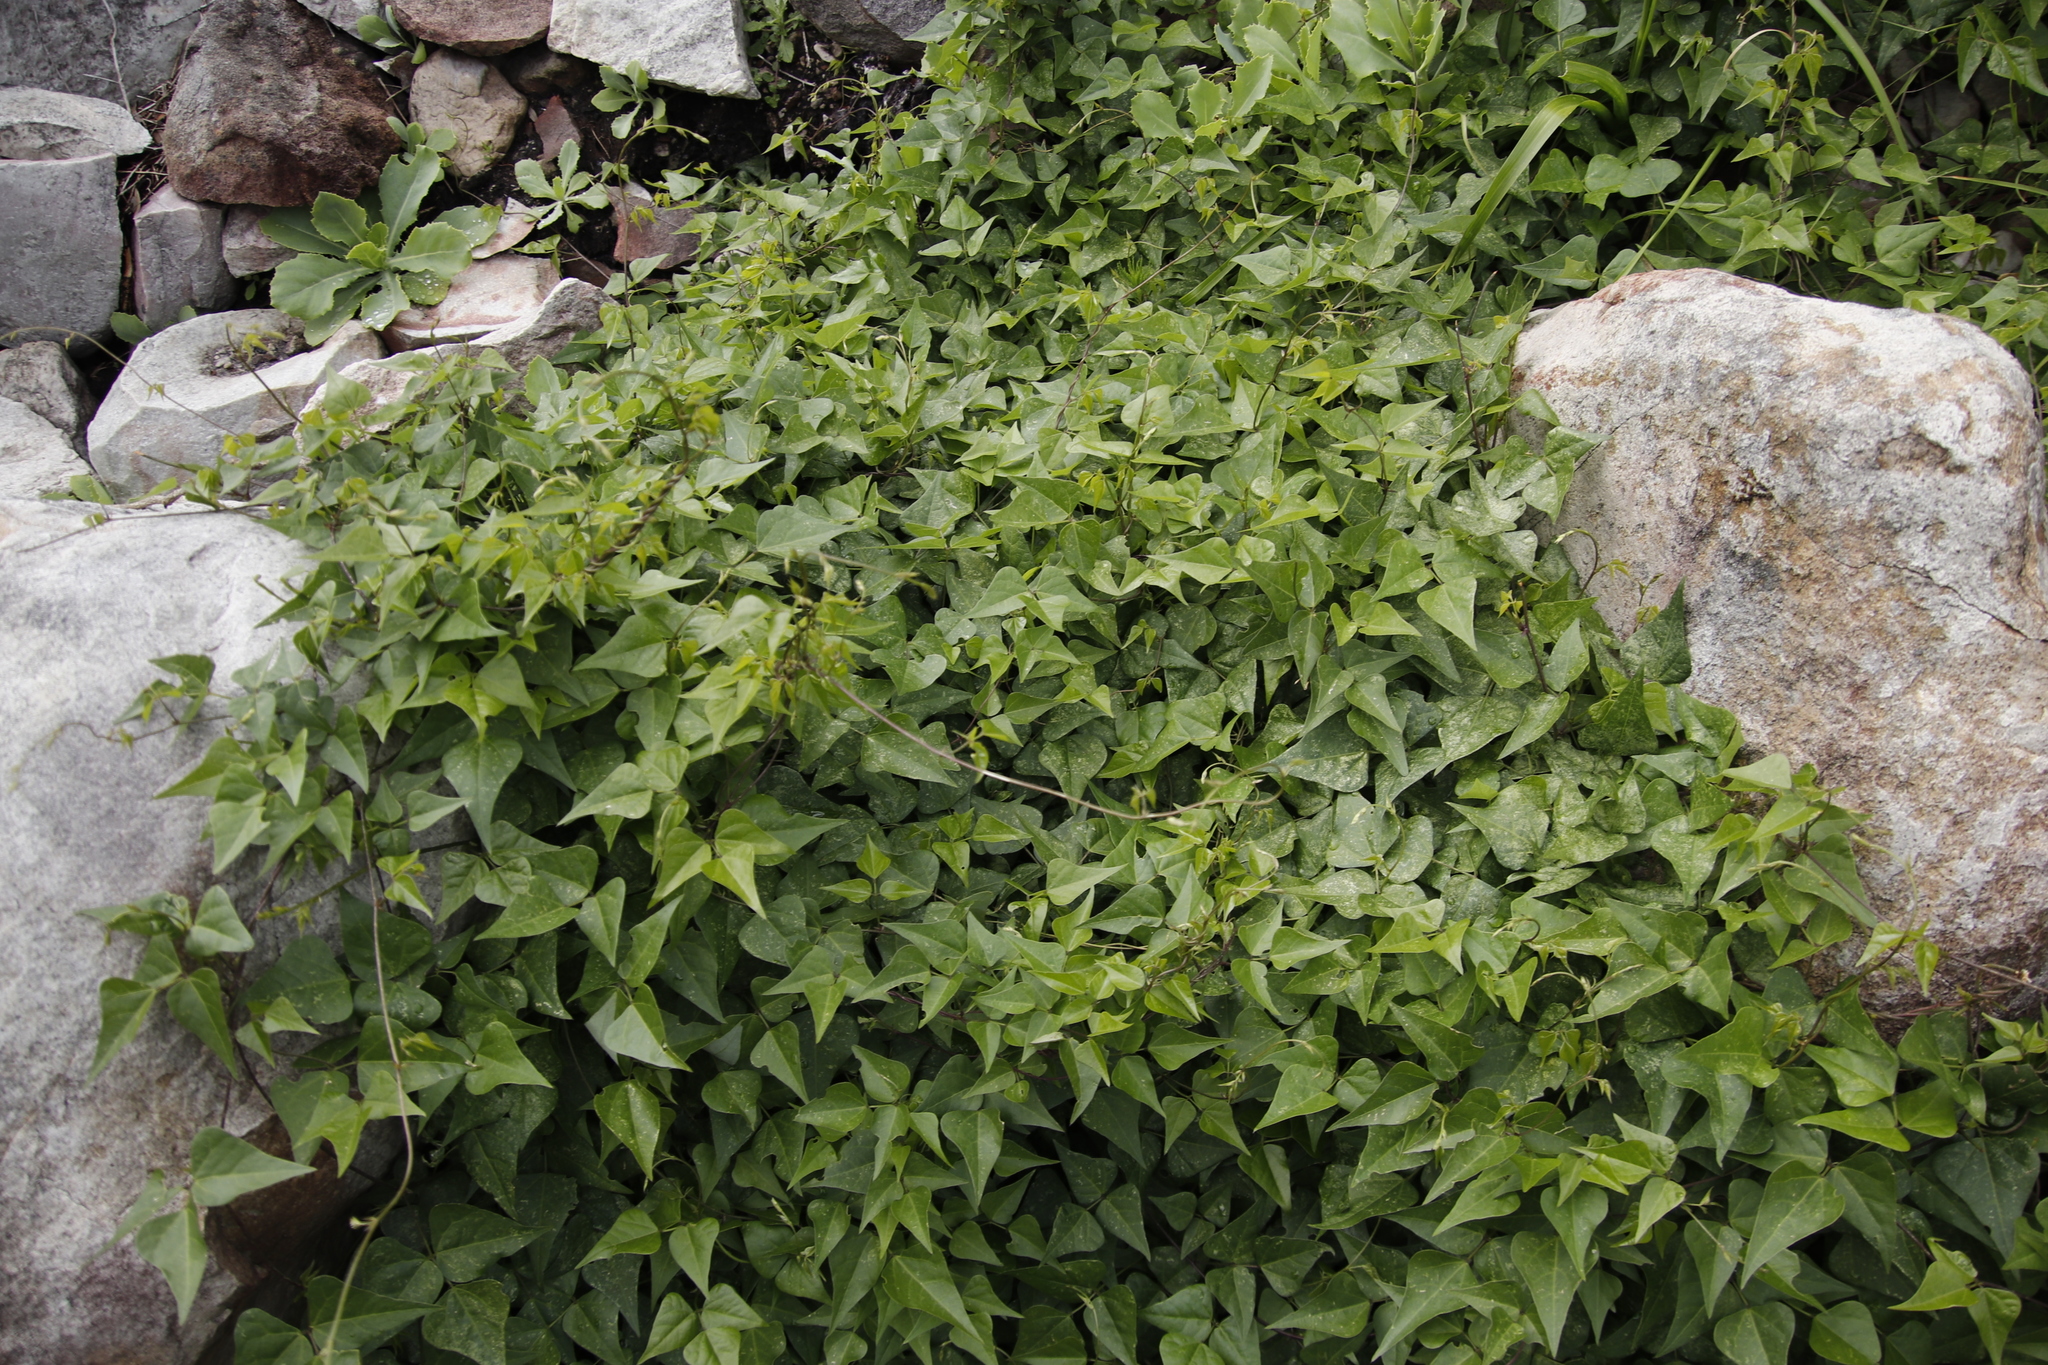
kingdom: Plantae
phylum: Tracheophyta
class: Magnoliopsida
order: Fabales
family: Fabaceae
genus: Dipogon
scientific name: Dipogon lignosus
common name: Okie bean
